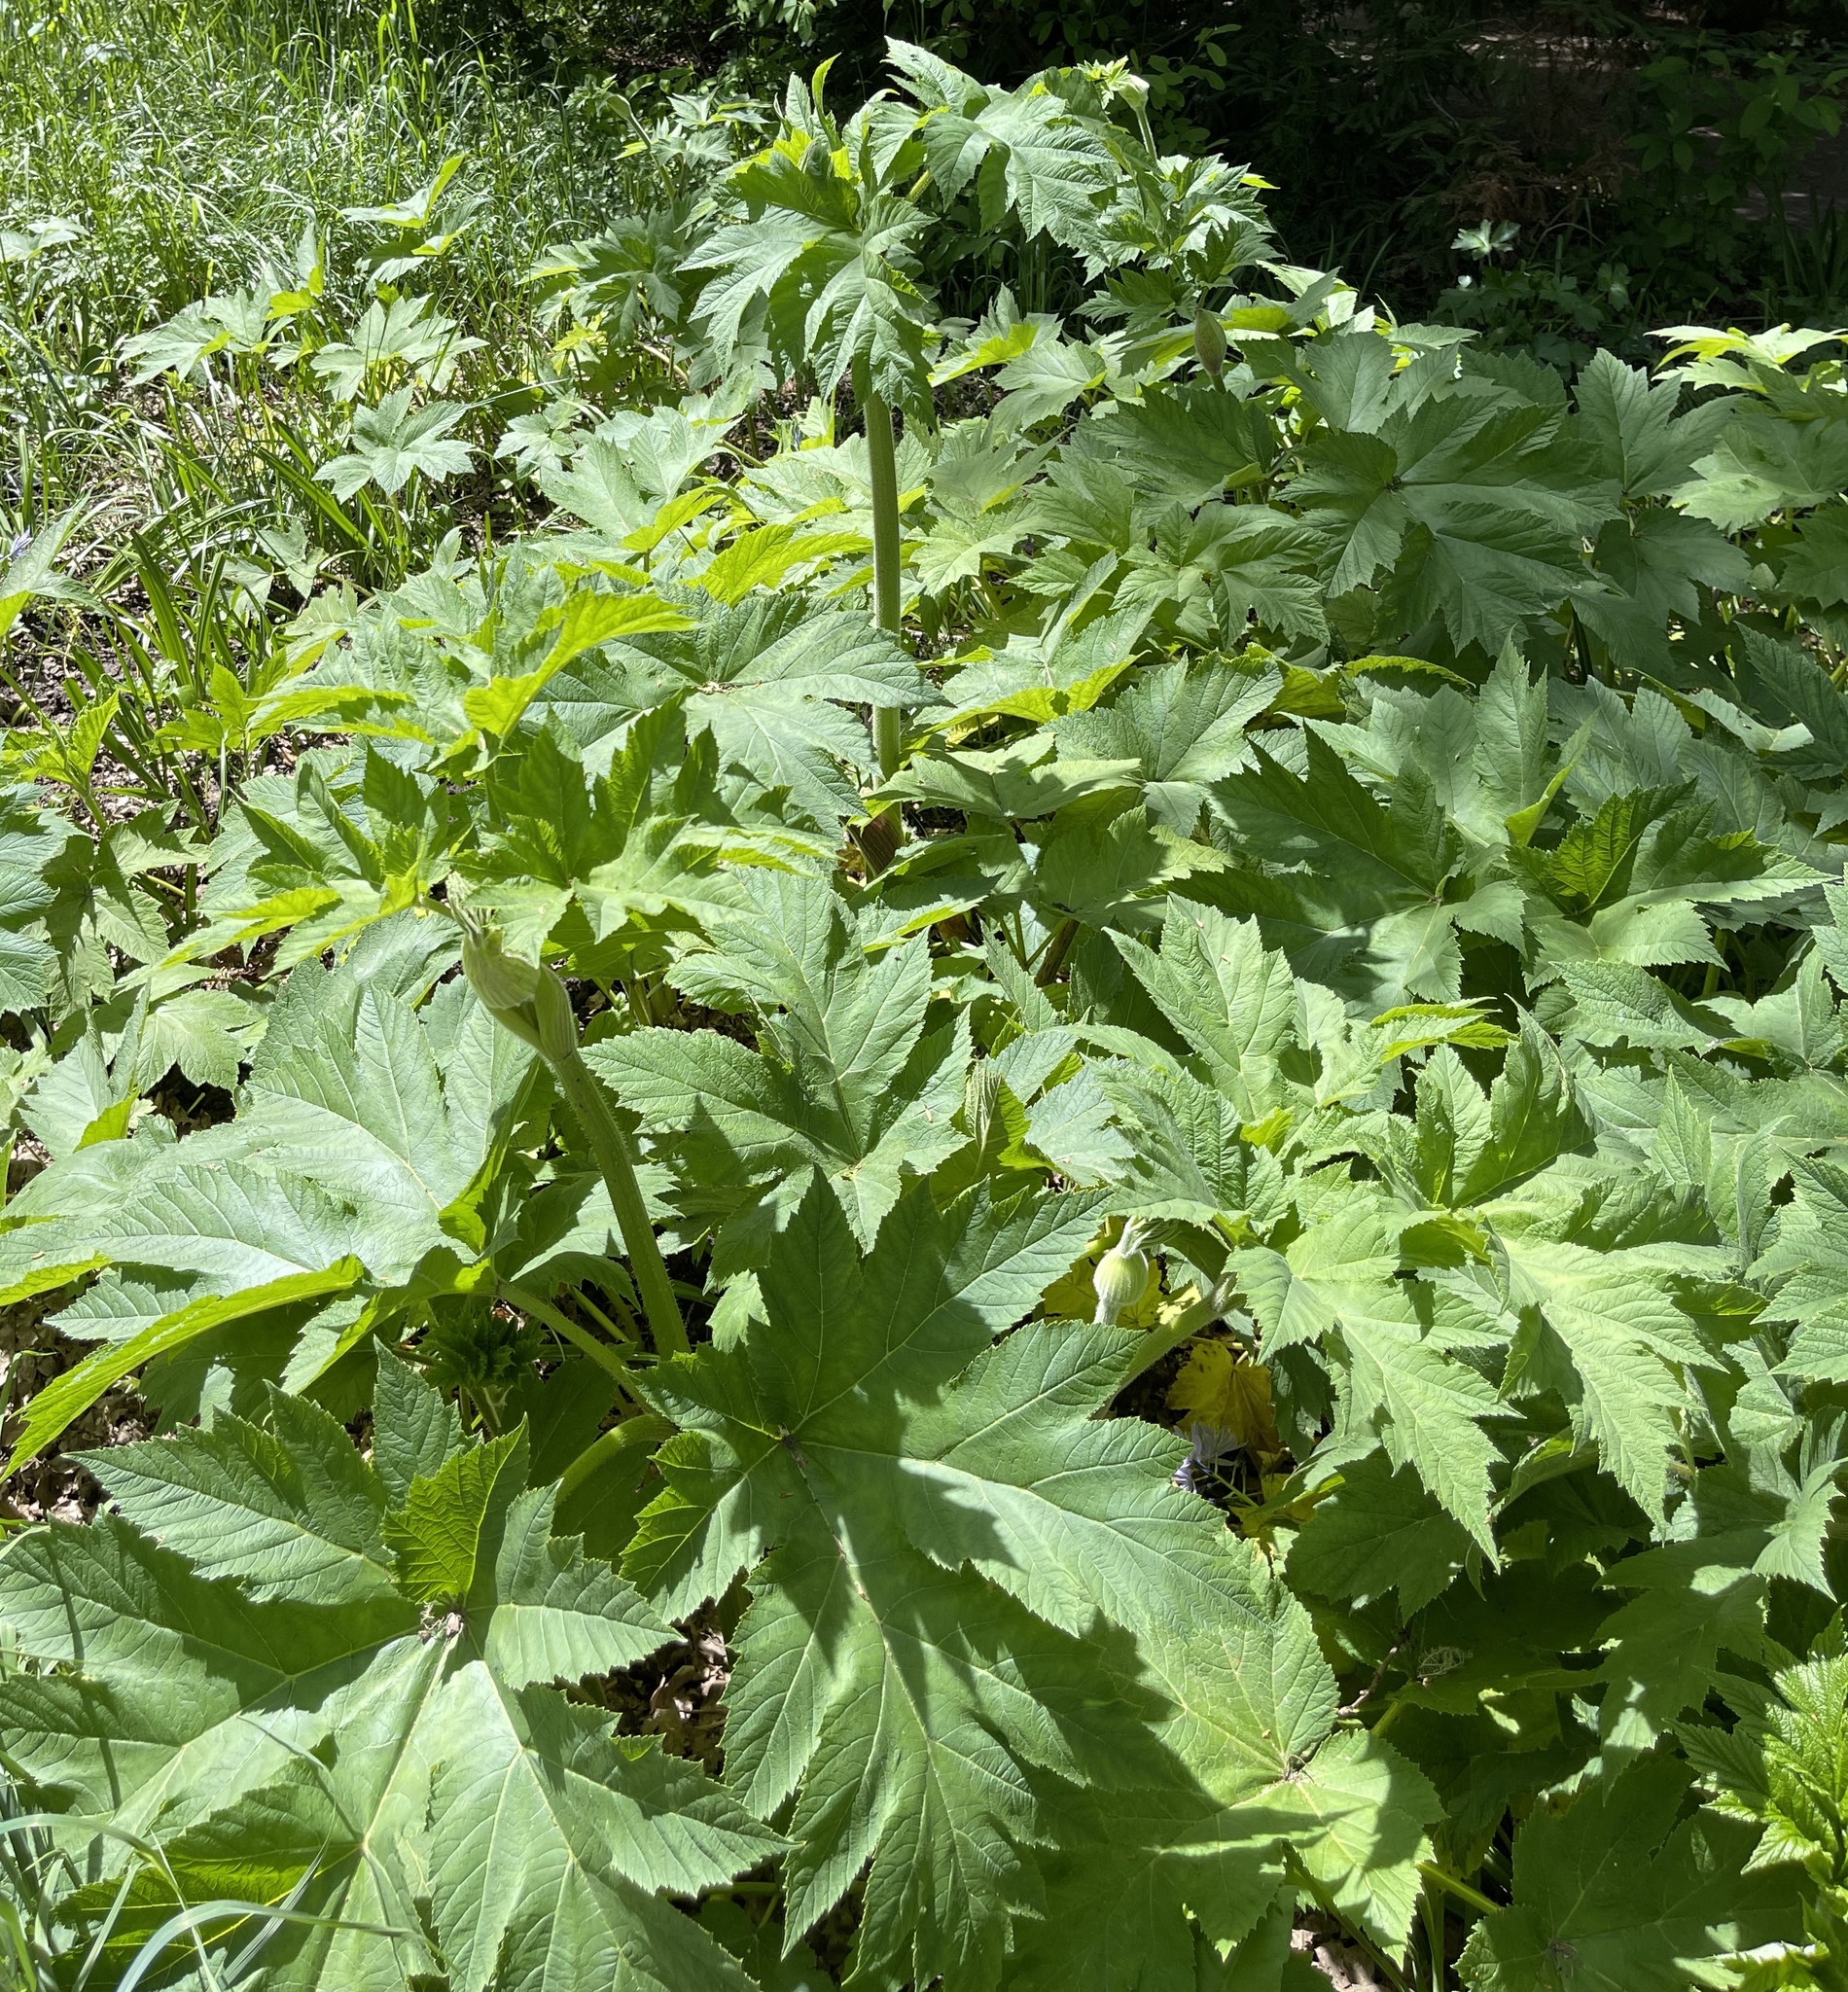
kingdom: Plantae
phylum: Tracheophyta
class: Magnoliopsida
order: Apiales
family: Apiaceae
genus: Heracleum
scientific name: Heracleum maximum
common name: American cow parsnip
